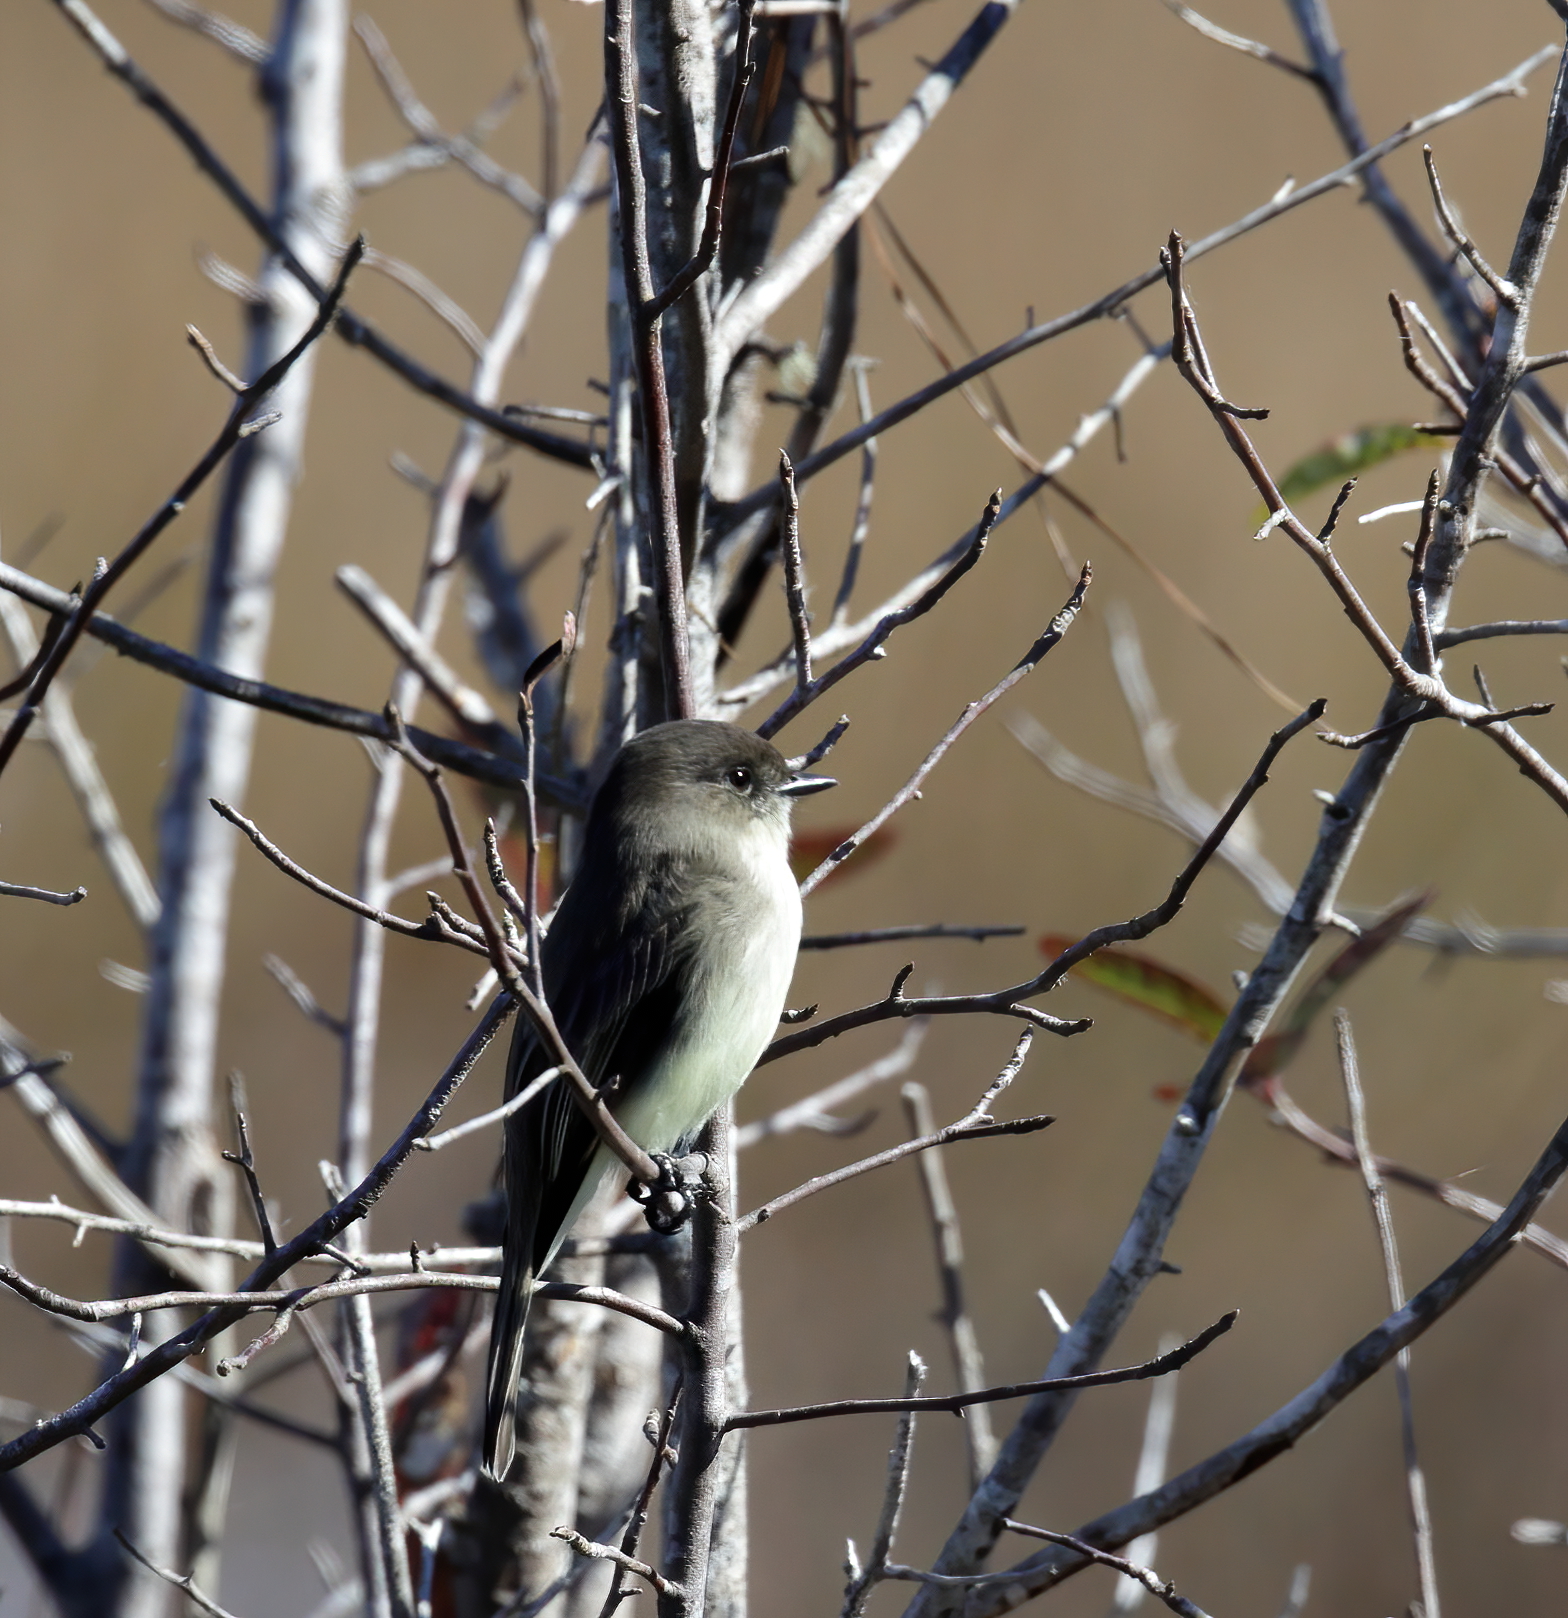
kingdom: Animalia
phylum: Chordata
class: Aves
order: Passeriformes
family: Tyrannidae
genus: Sayornis
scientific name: Sayornis phoebe
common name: Eastern phoebe
